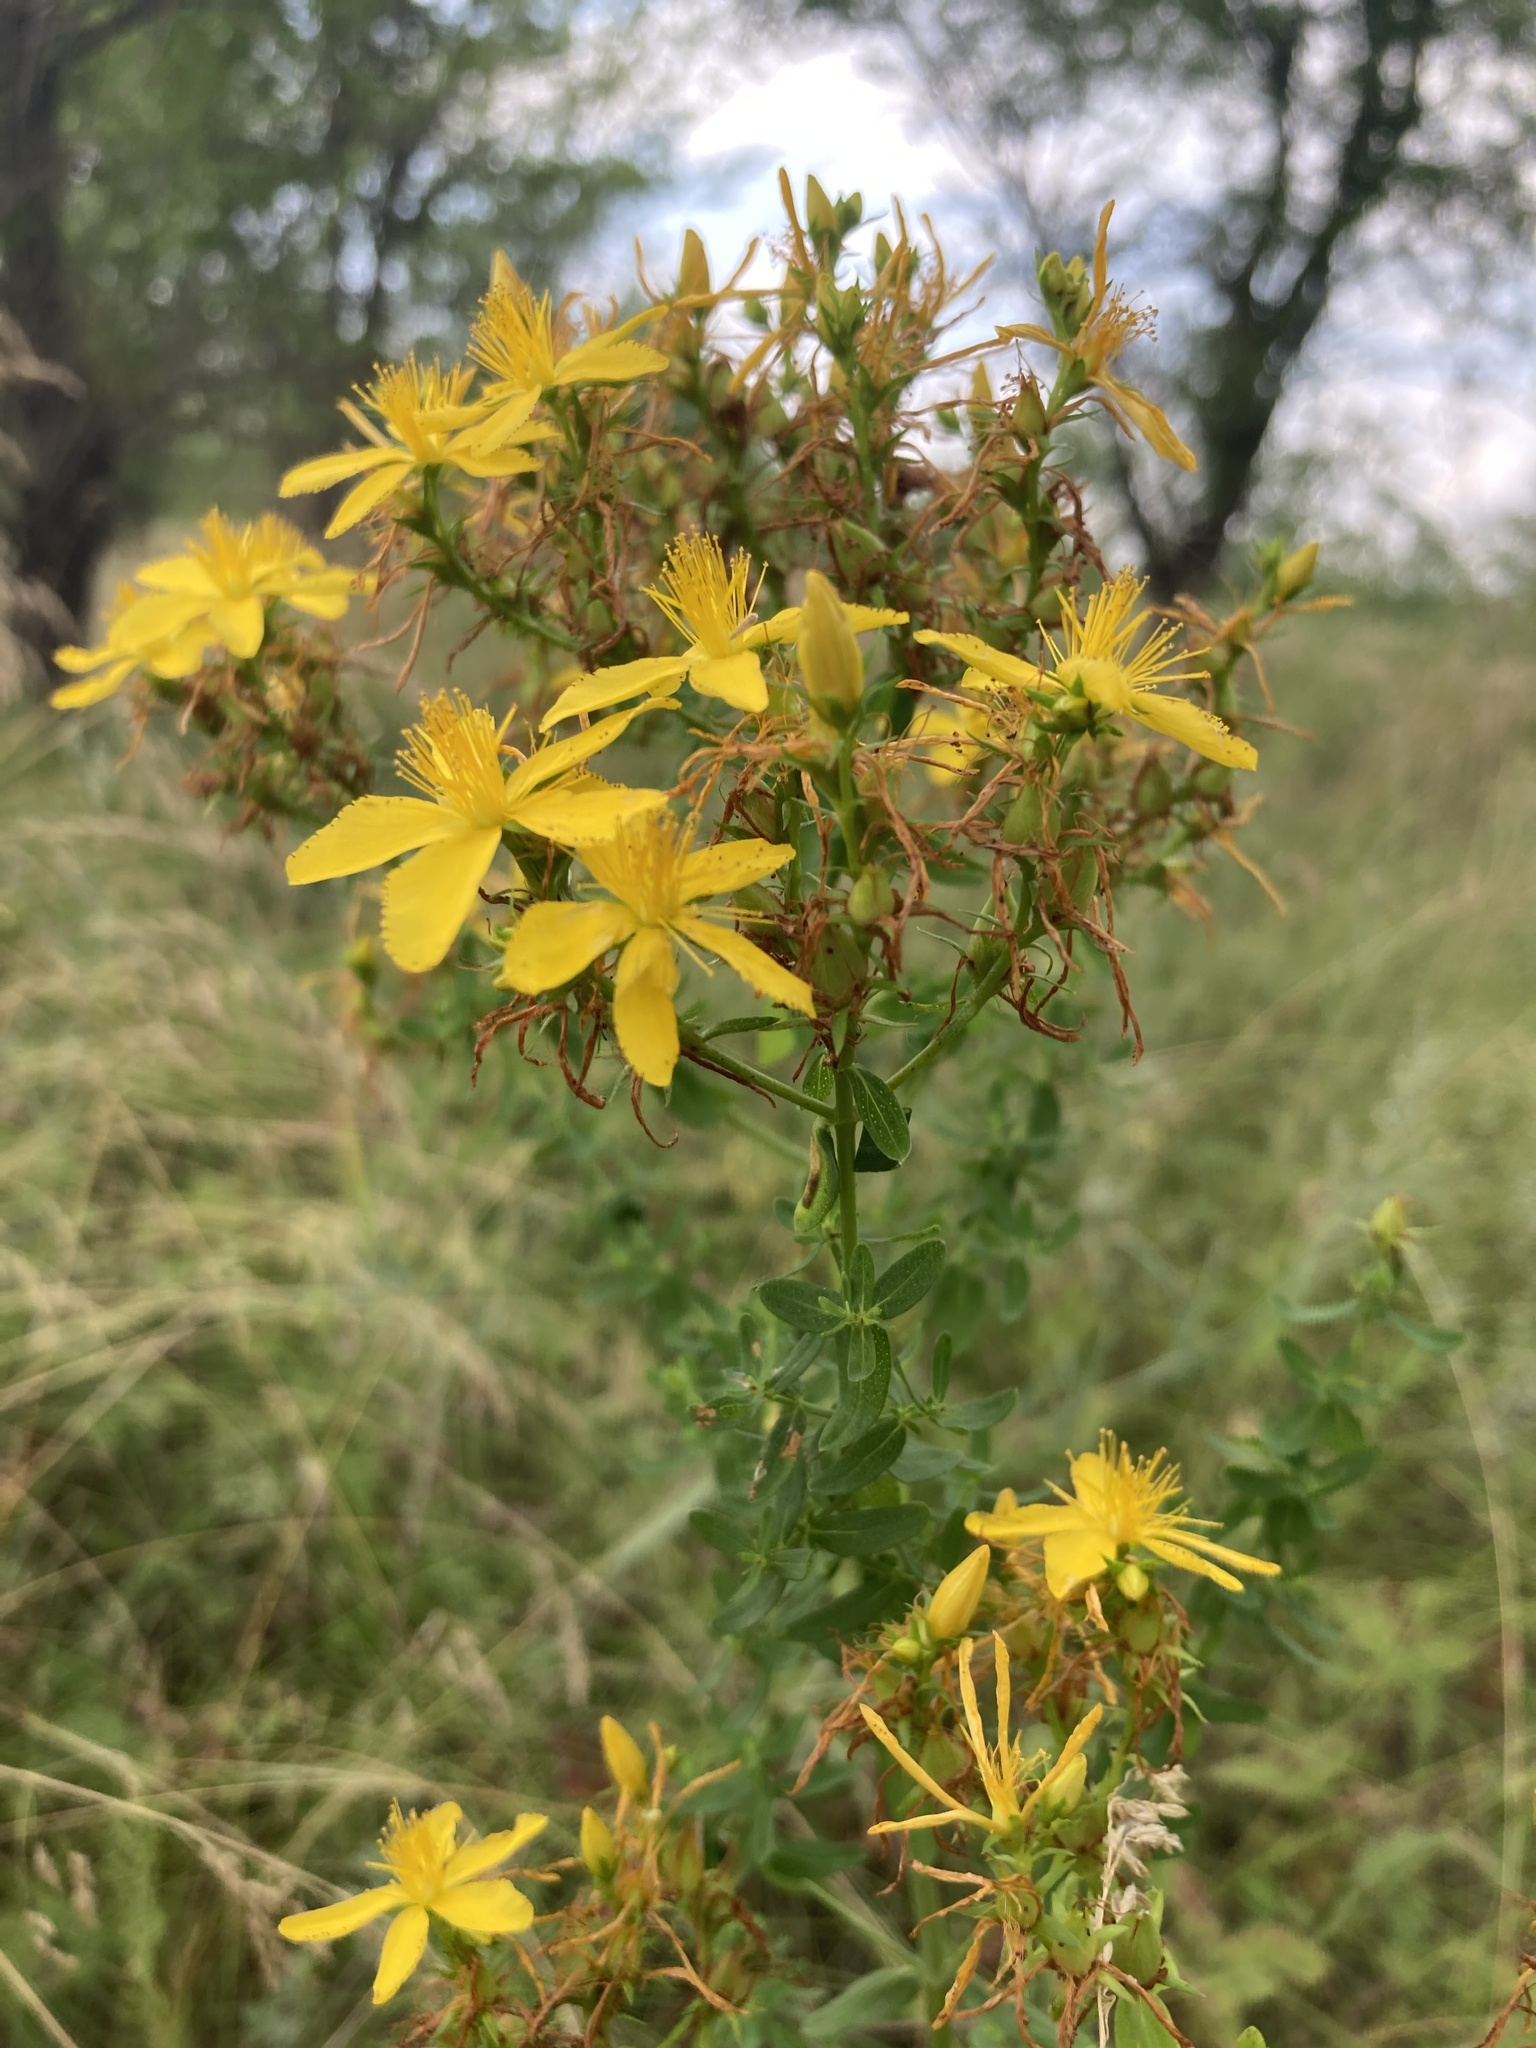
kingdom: Plantae
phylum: Tracheophyta
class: Magnoliopsida
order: Malpighiales
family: Hypericaceae
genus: Hypericum
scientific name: Hypericum perforatum
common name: Common st. johnswort
